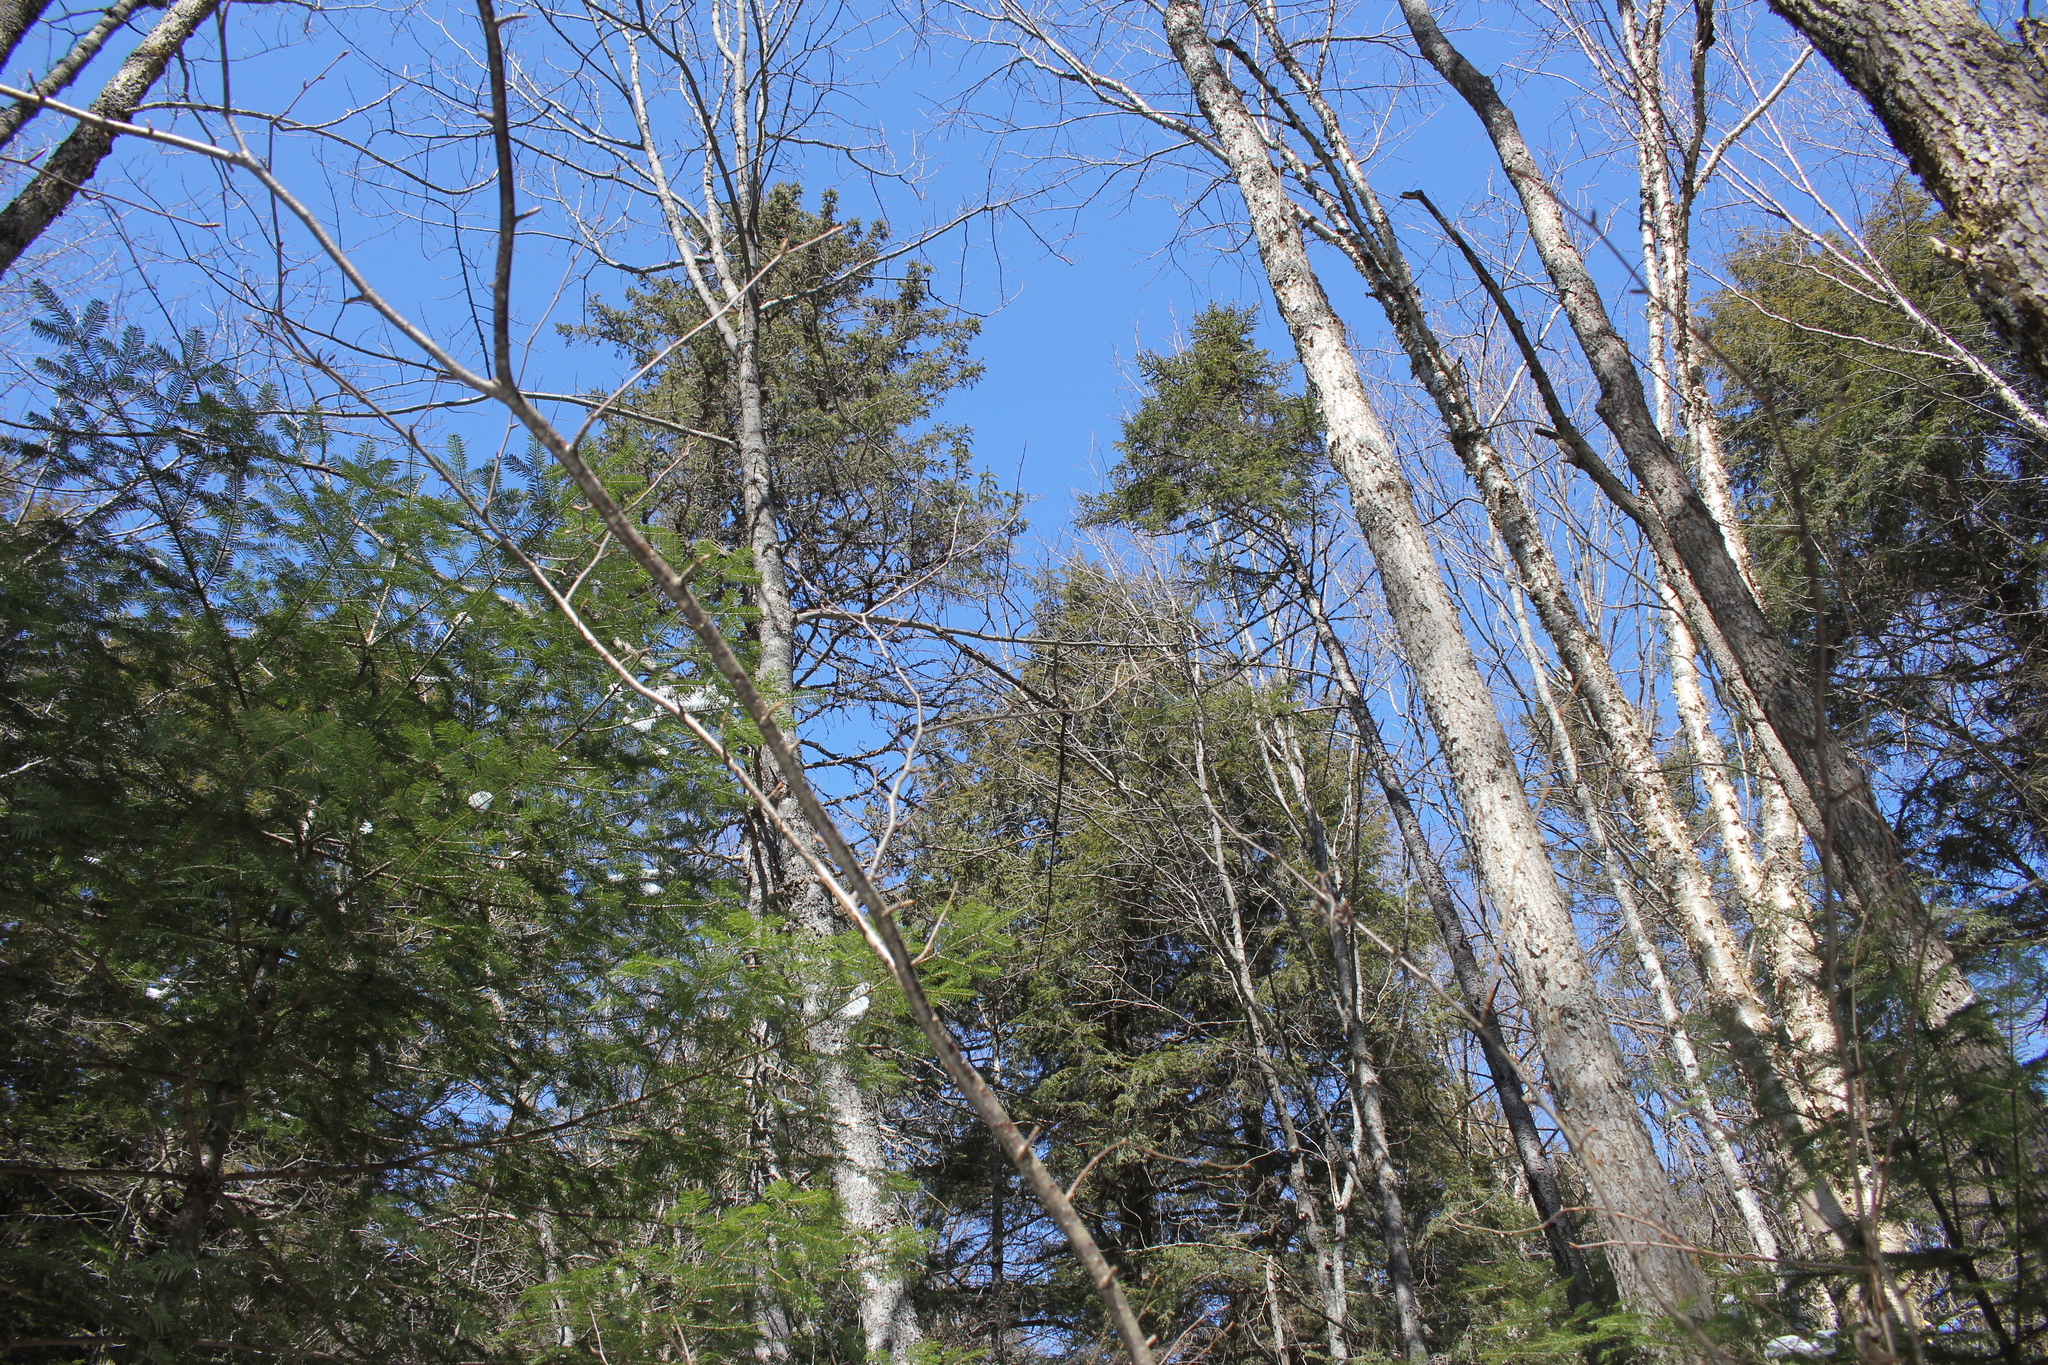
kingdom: Plantae
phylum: Tracheophyta
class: Pinopsida
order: Pinales
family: Pinaceae
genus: Picea
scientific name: Picea glauca
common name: White spruce
